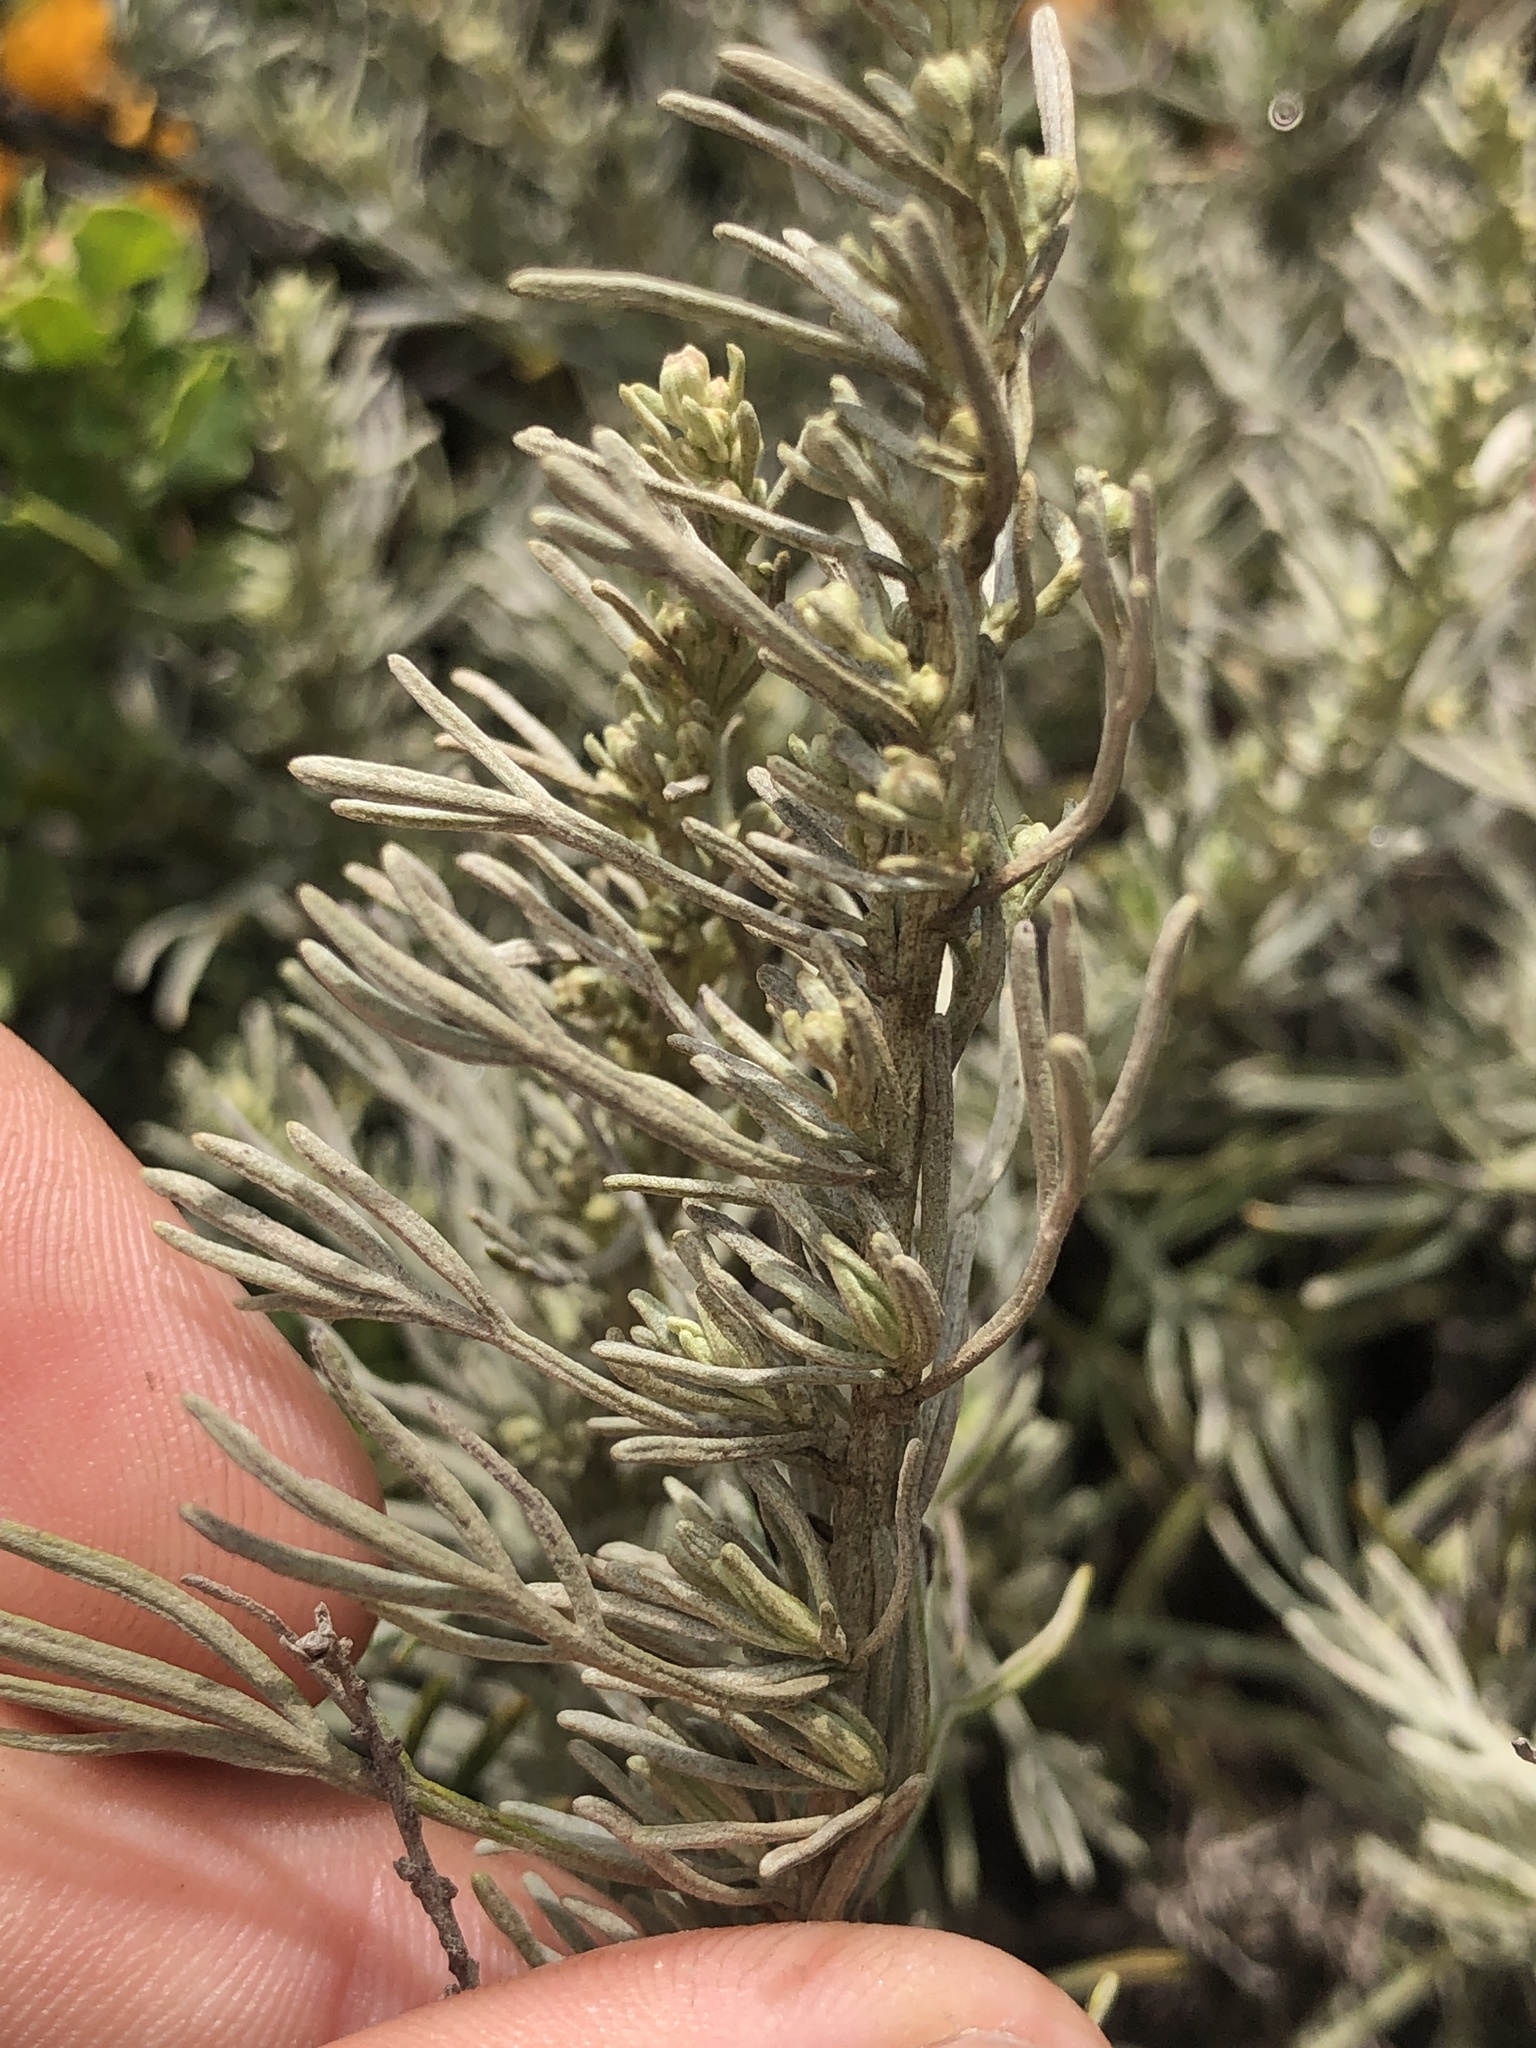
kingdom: Plantae
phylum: Tracheophyta
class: Magnoliopsida
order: Asterales
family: Asteraceae
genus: Artemisia
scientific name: Artemisia californica
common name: California sagebrush
